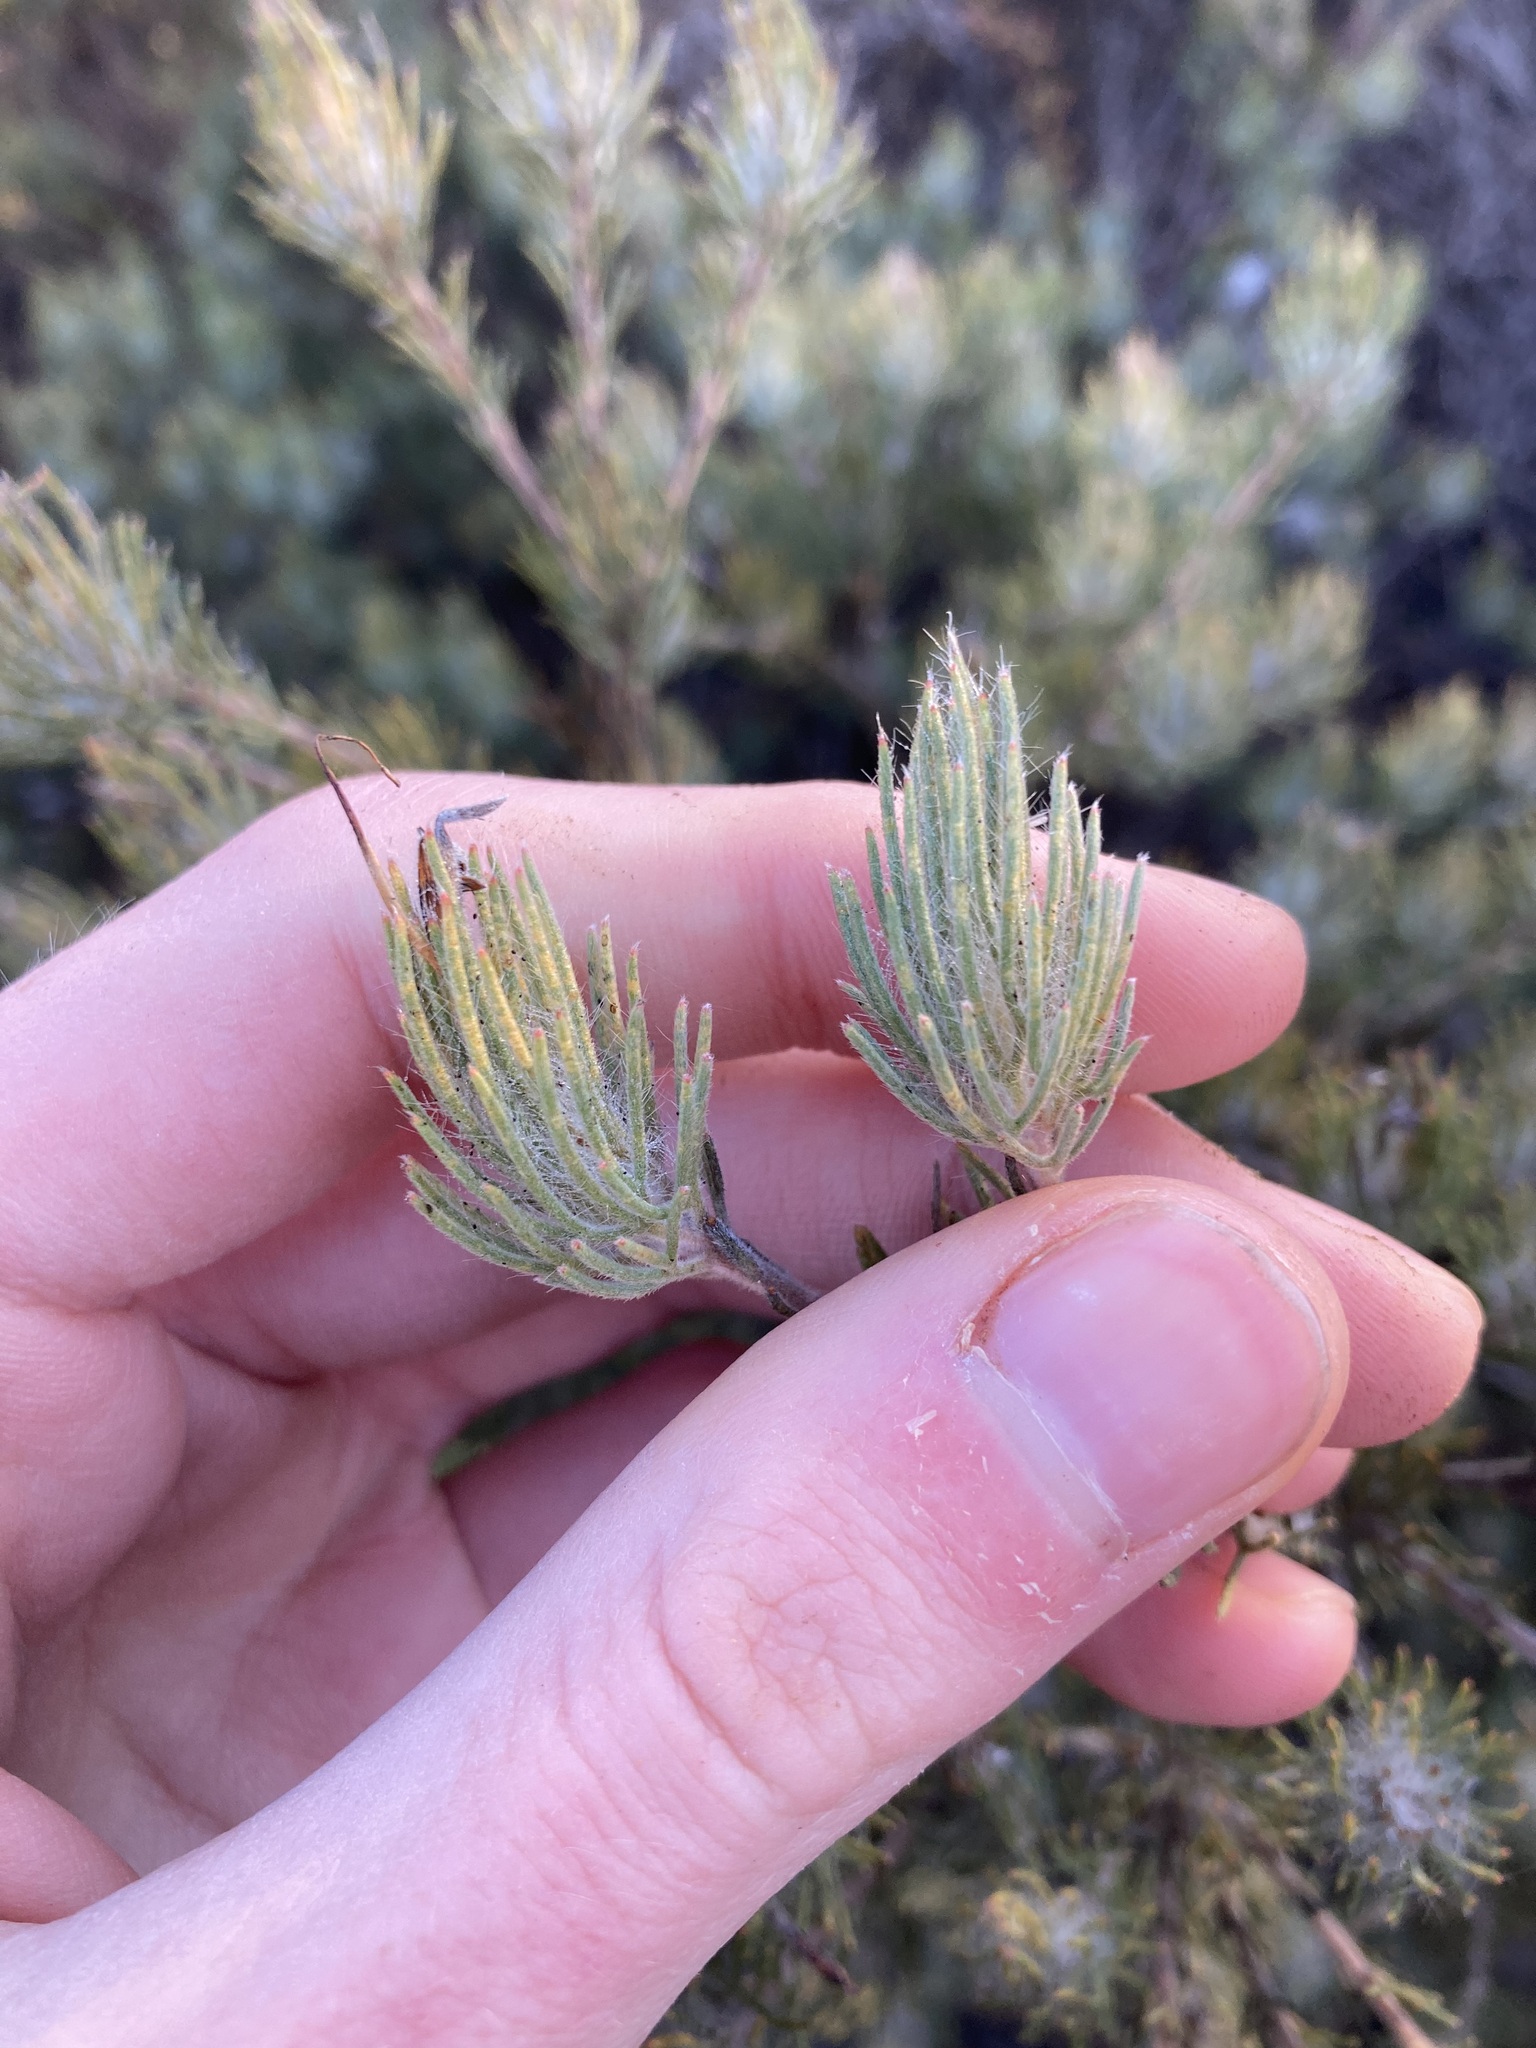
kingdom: Plantae
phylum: Tracheophyta
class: Magnoliopsida
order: Proteales
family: Proteaceae
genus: Adenanthos
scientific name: Adenanthos cygnorum
